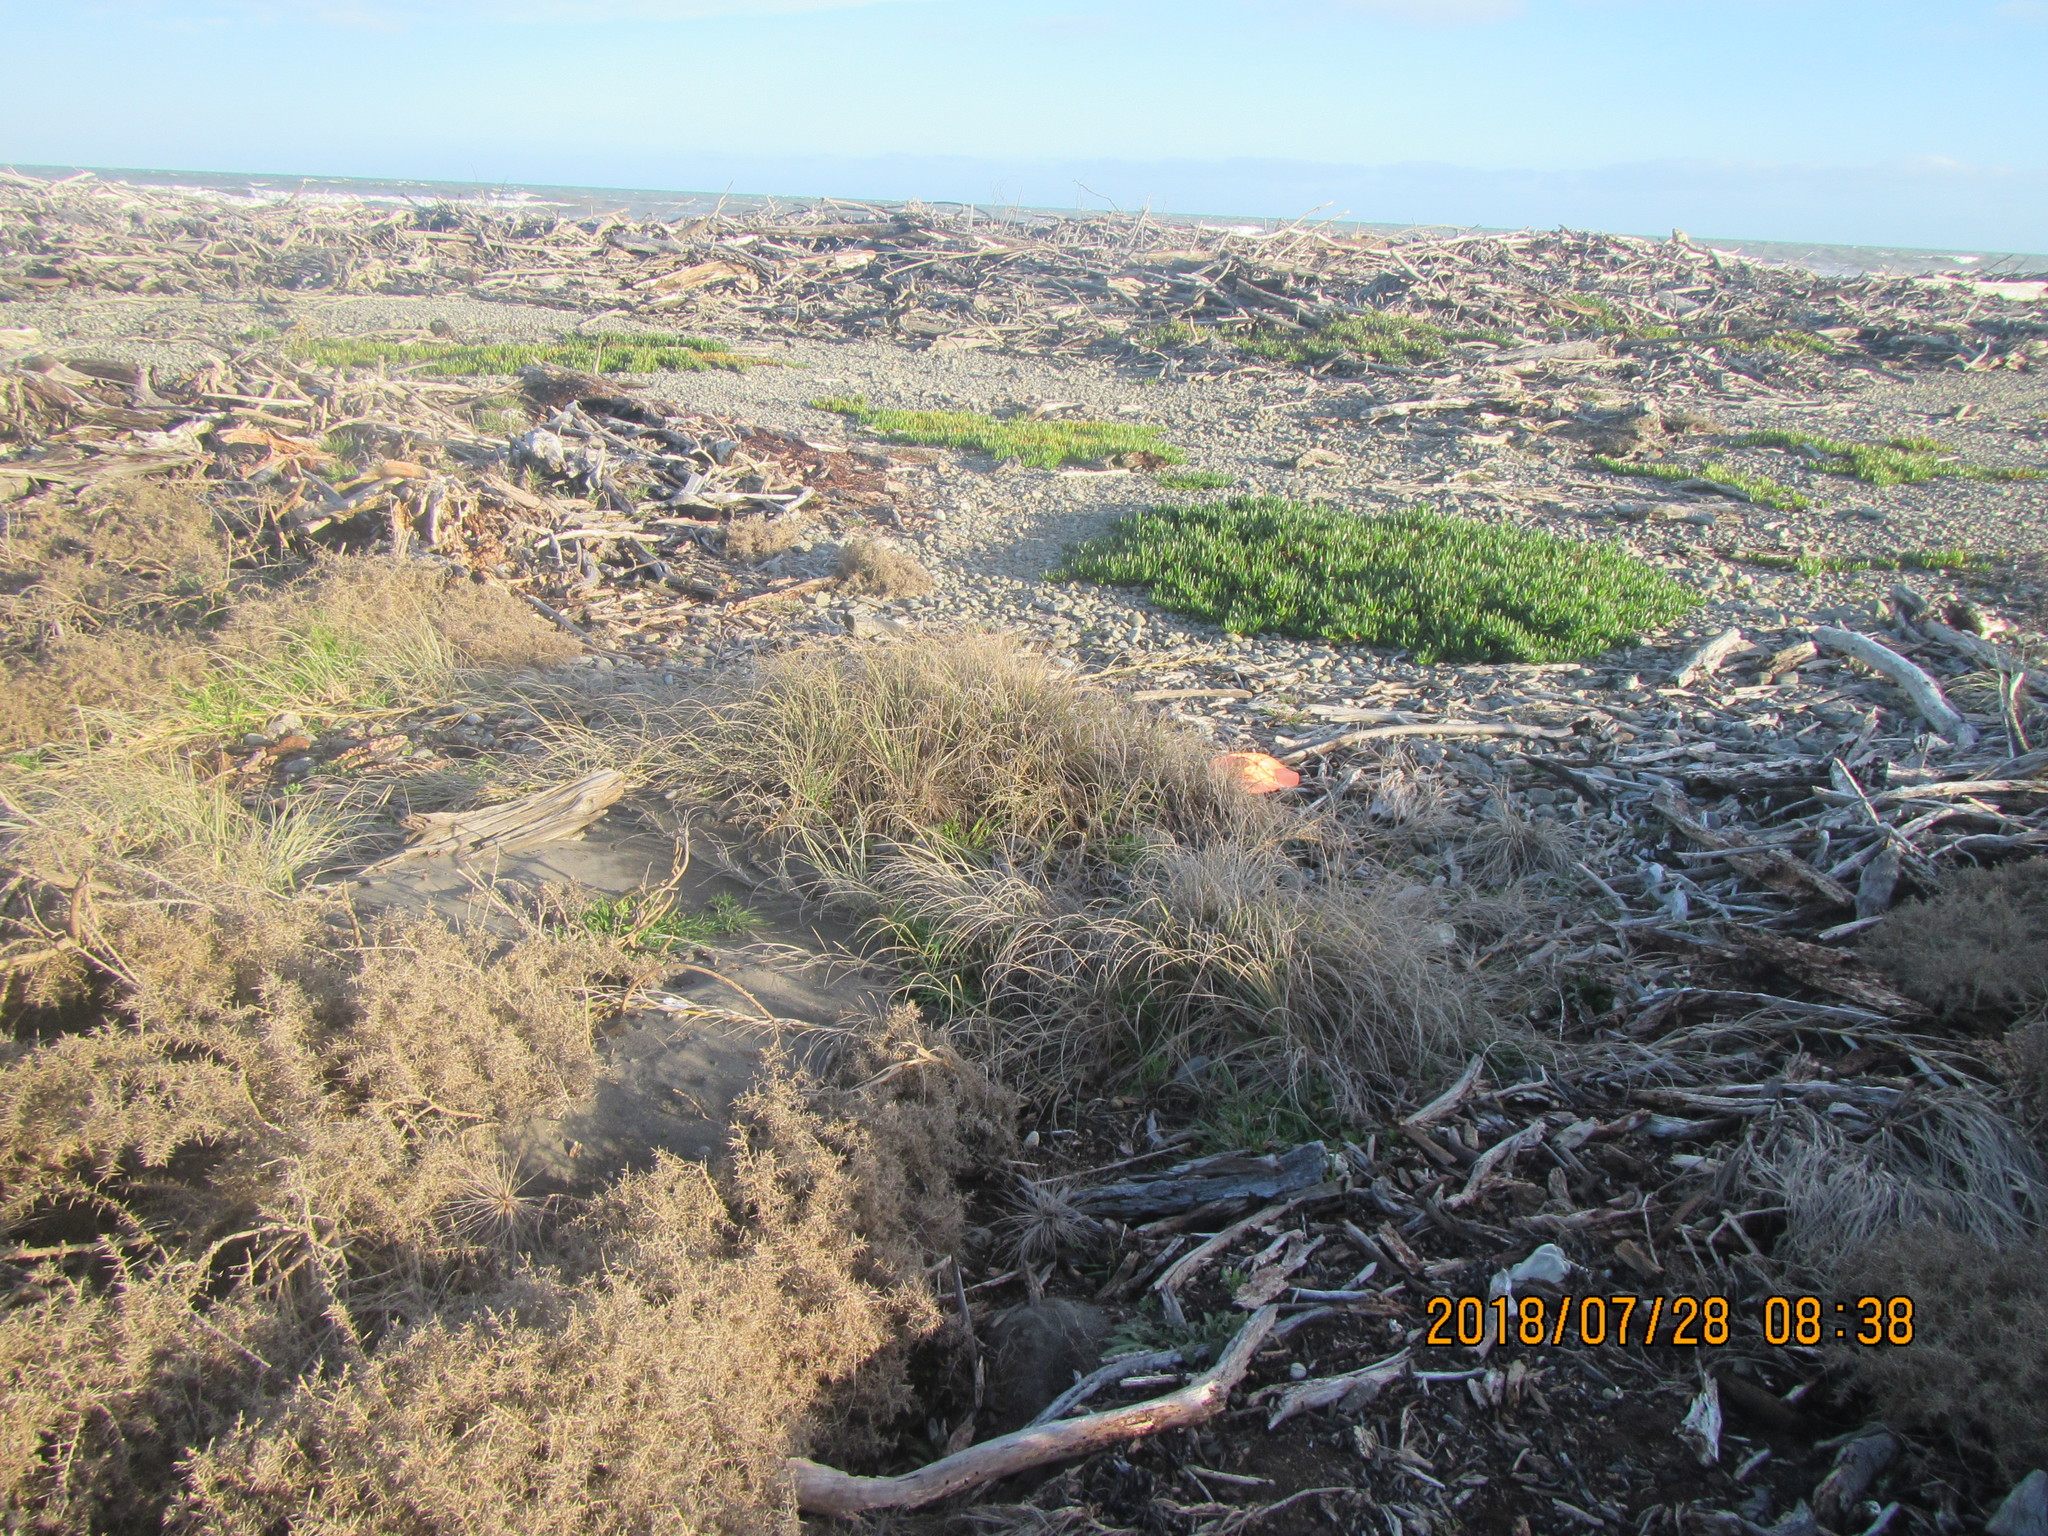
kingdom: Plantae
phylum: Tracheophyta
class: Liliopsida
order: Poales
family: Poaceae
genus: Spinifex
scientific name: Spinifex sericeus
